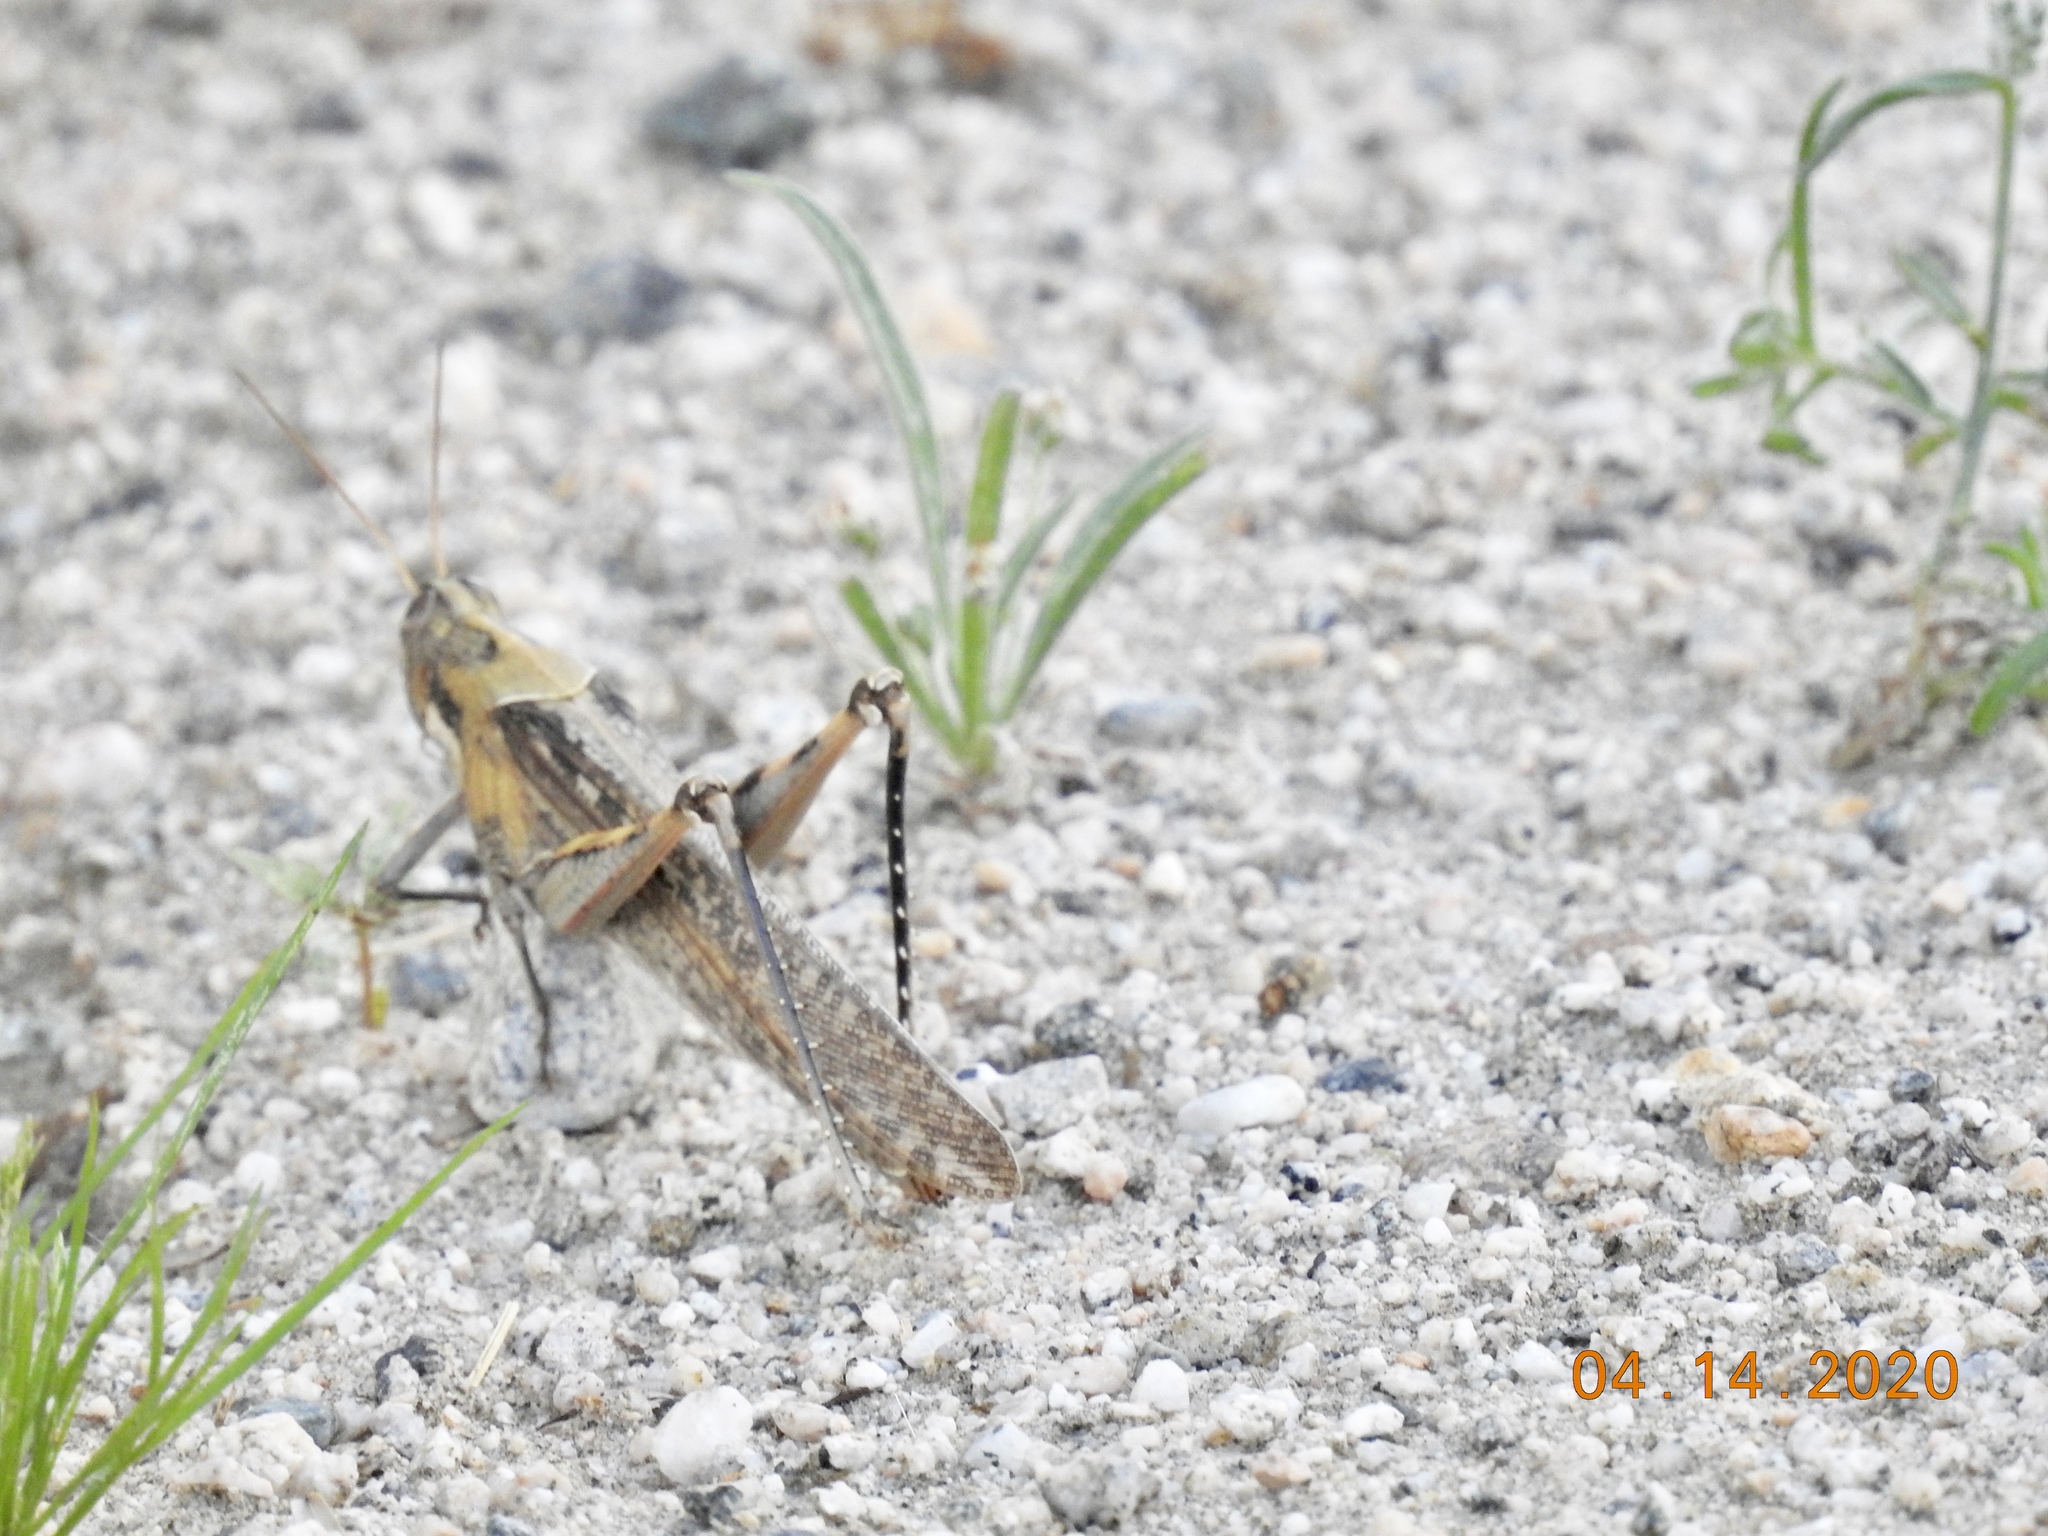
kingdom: Animalia
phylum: Arthropoda
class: Insecta
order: Orthoptera
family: Acrididae
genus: Schistocerca
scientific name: Schistocerca nitens
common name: Vagrant grasshopper
